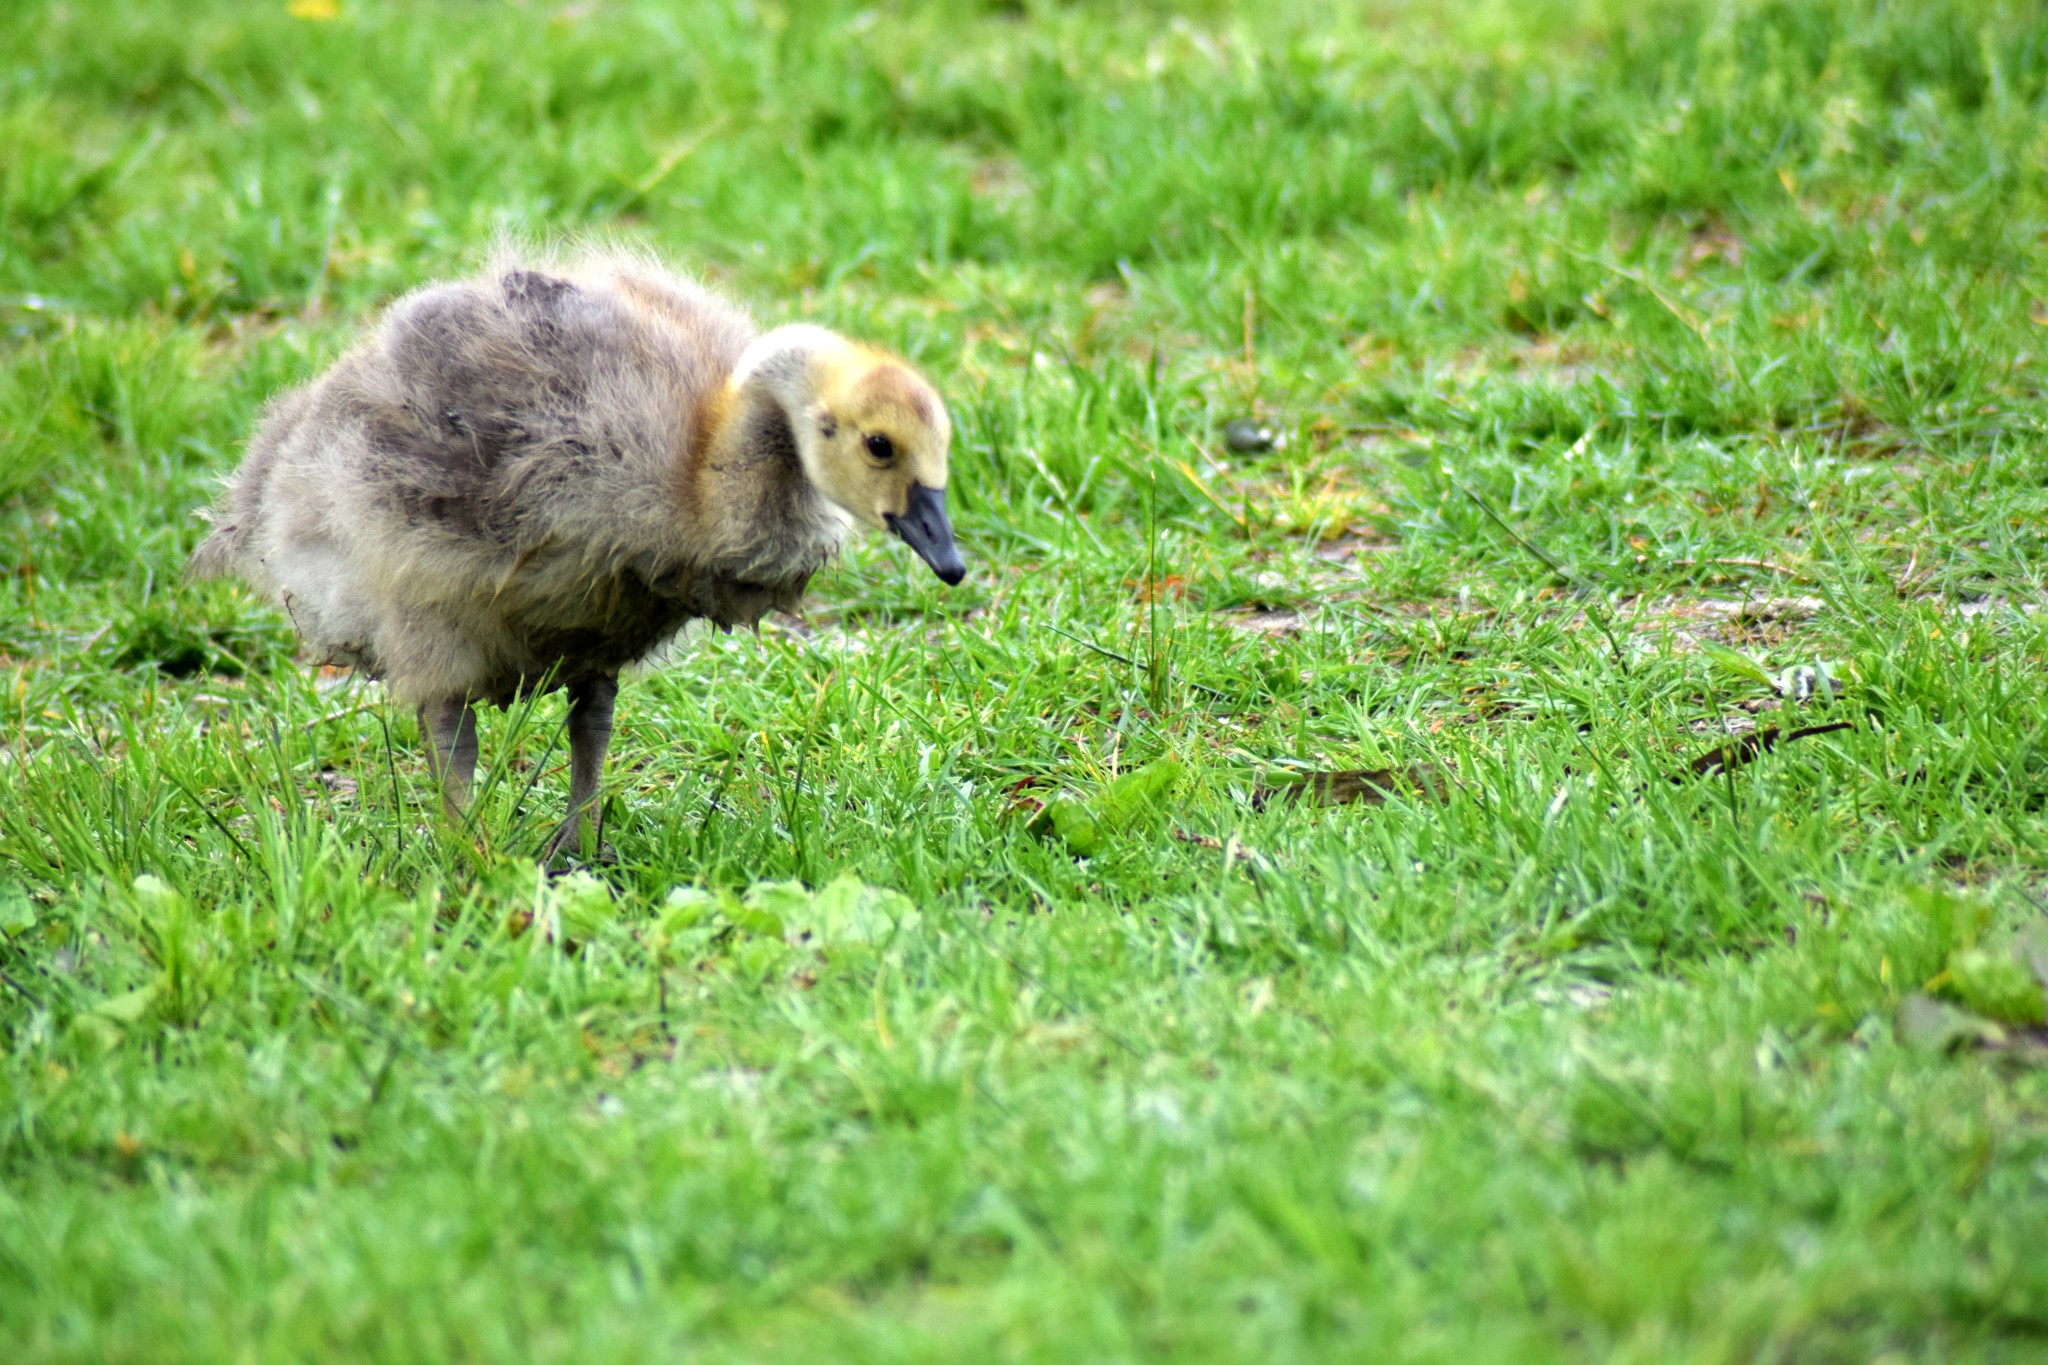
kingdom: Animalia
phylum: Chordata
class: Aves
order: Anseriformes
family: Anatidae
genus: Branta
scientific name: Branta canadensis
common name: Canada goose
